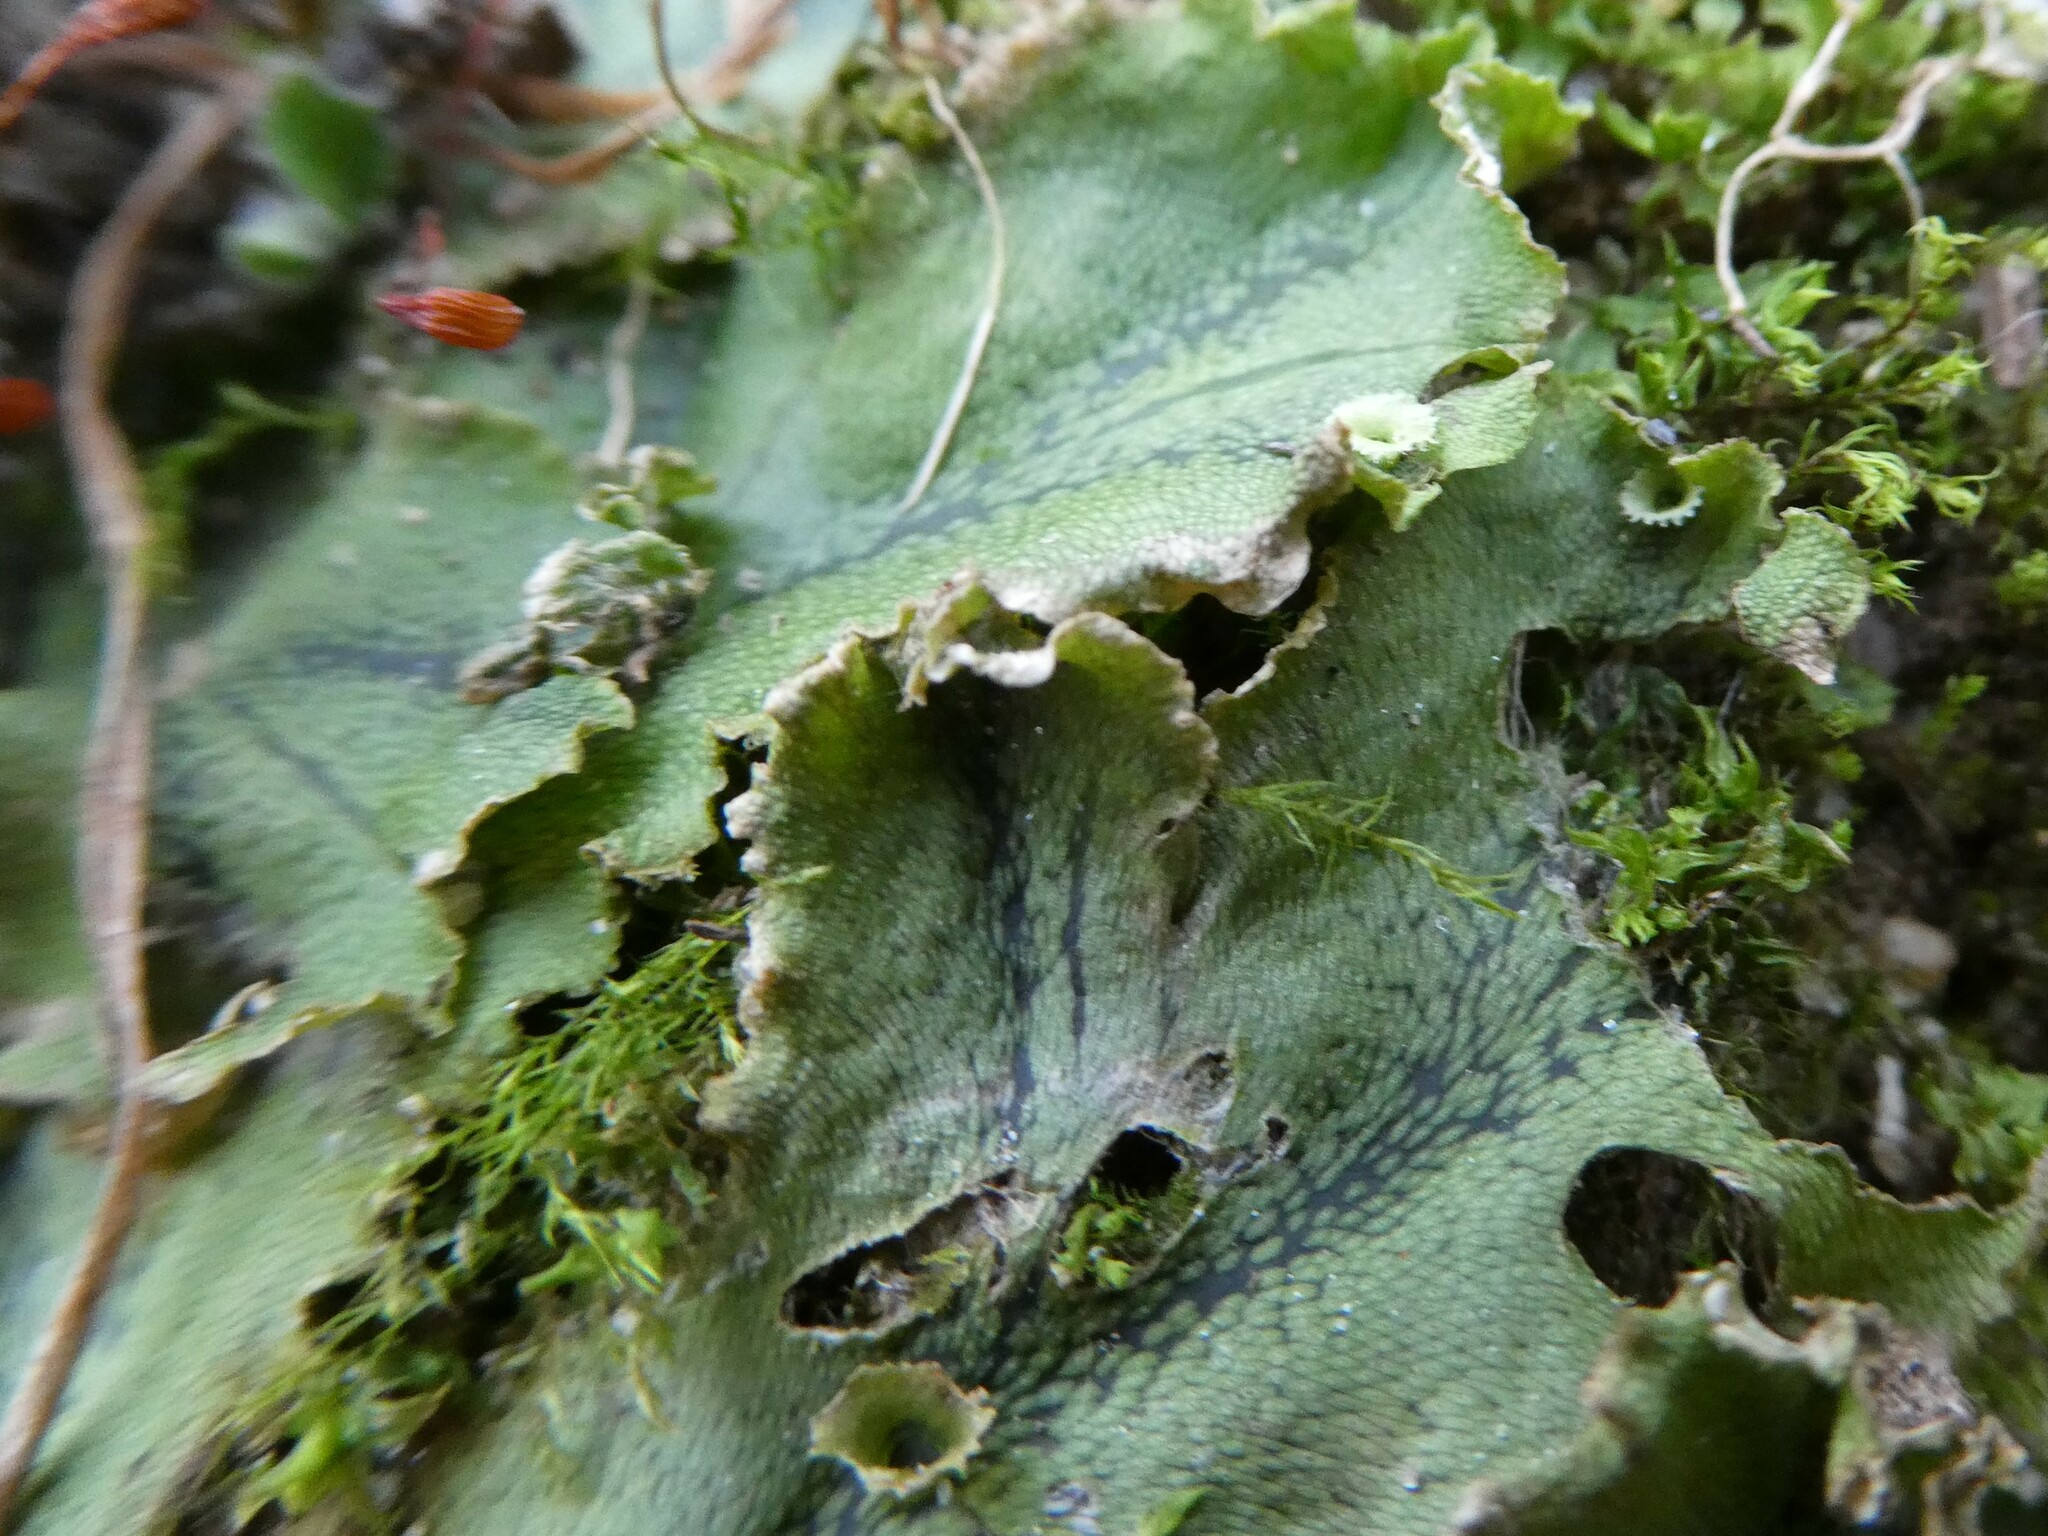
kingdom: Plantae
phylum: Marchantiophyta
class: Marchantiopsida
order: Marchantiales
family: Marchantiaceae
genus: Marchantia
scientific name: Marchantia polymorpha
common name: Common liverwort
